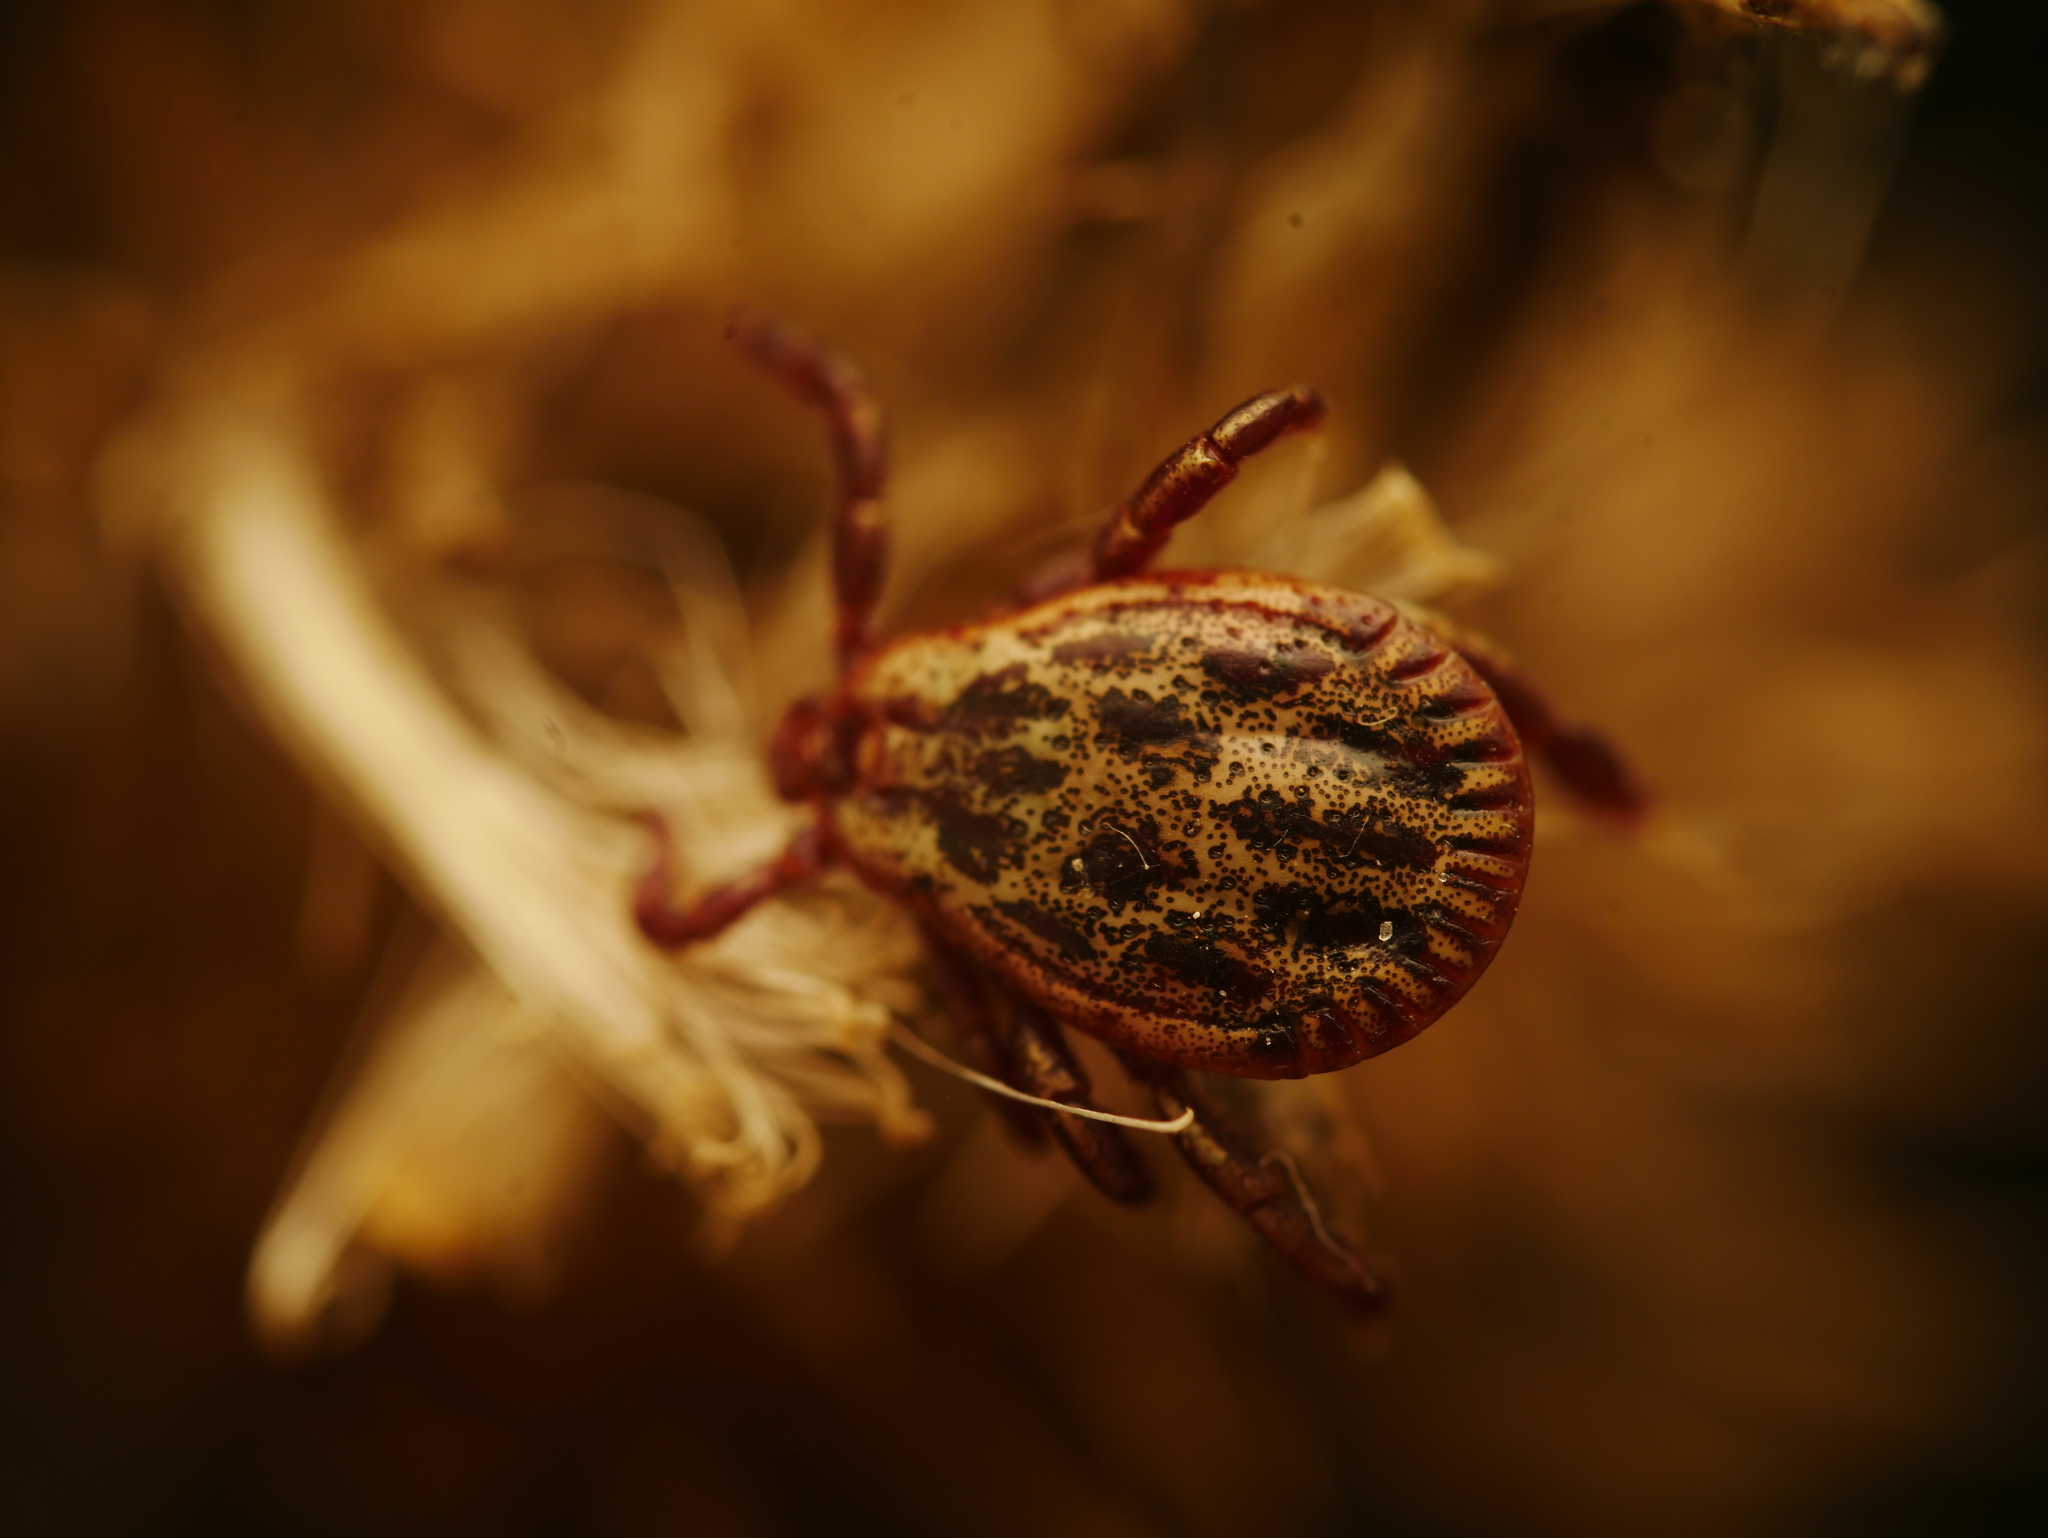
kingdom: Animalia
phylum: Arthropoda
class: Arachnida
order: Ixodida
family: Ixodidae
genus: Dermacentor
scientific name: Dermacentor reticulatus
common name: Ornate cow tick
